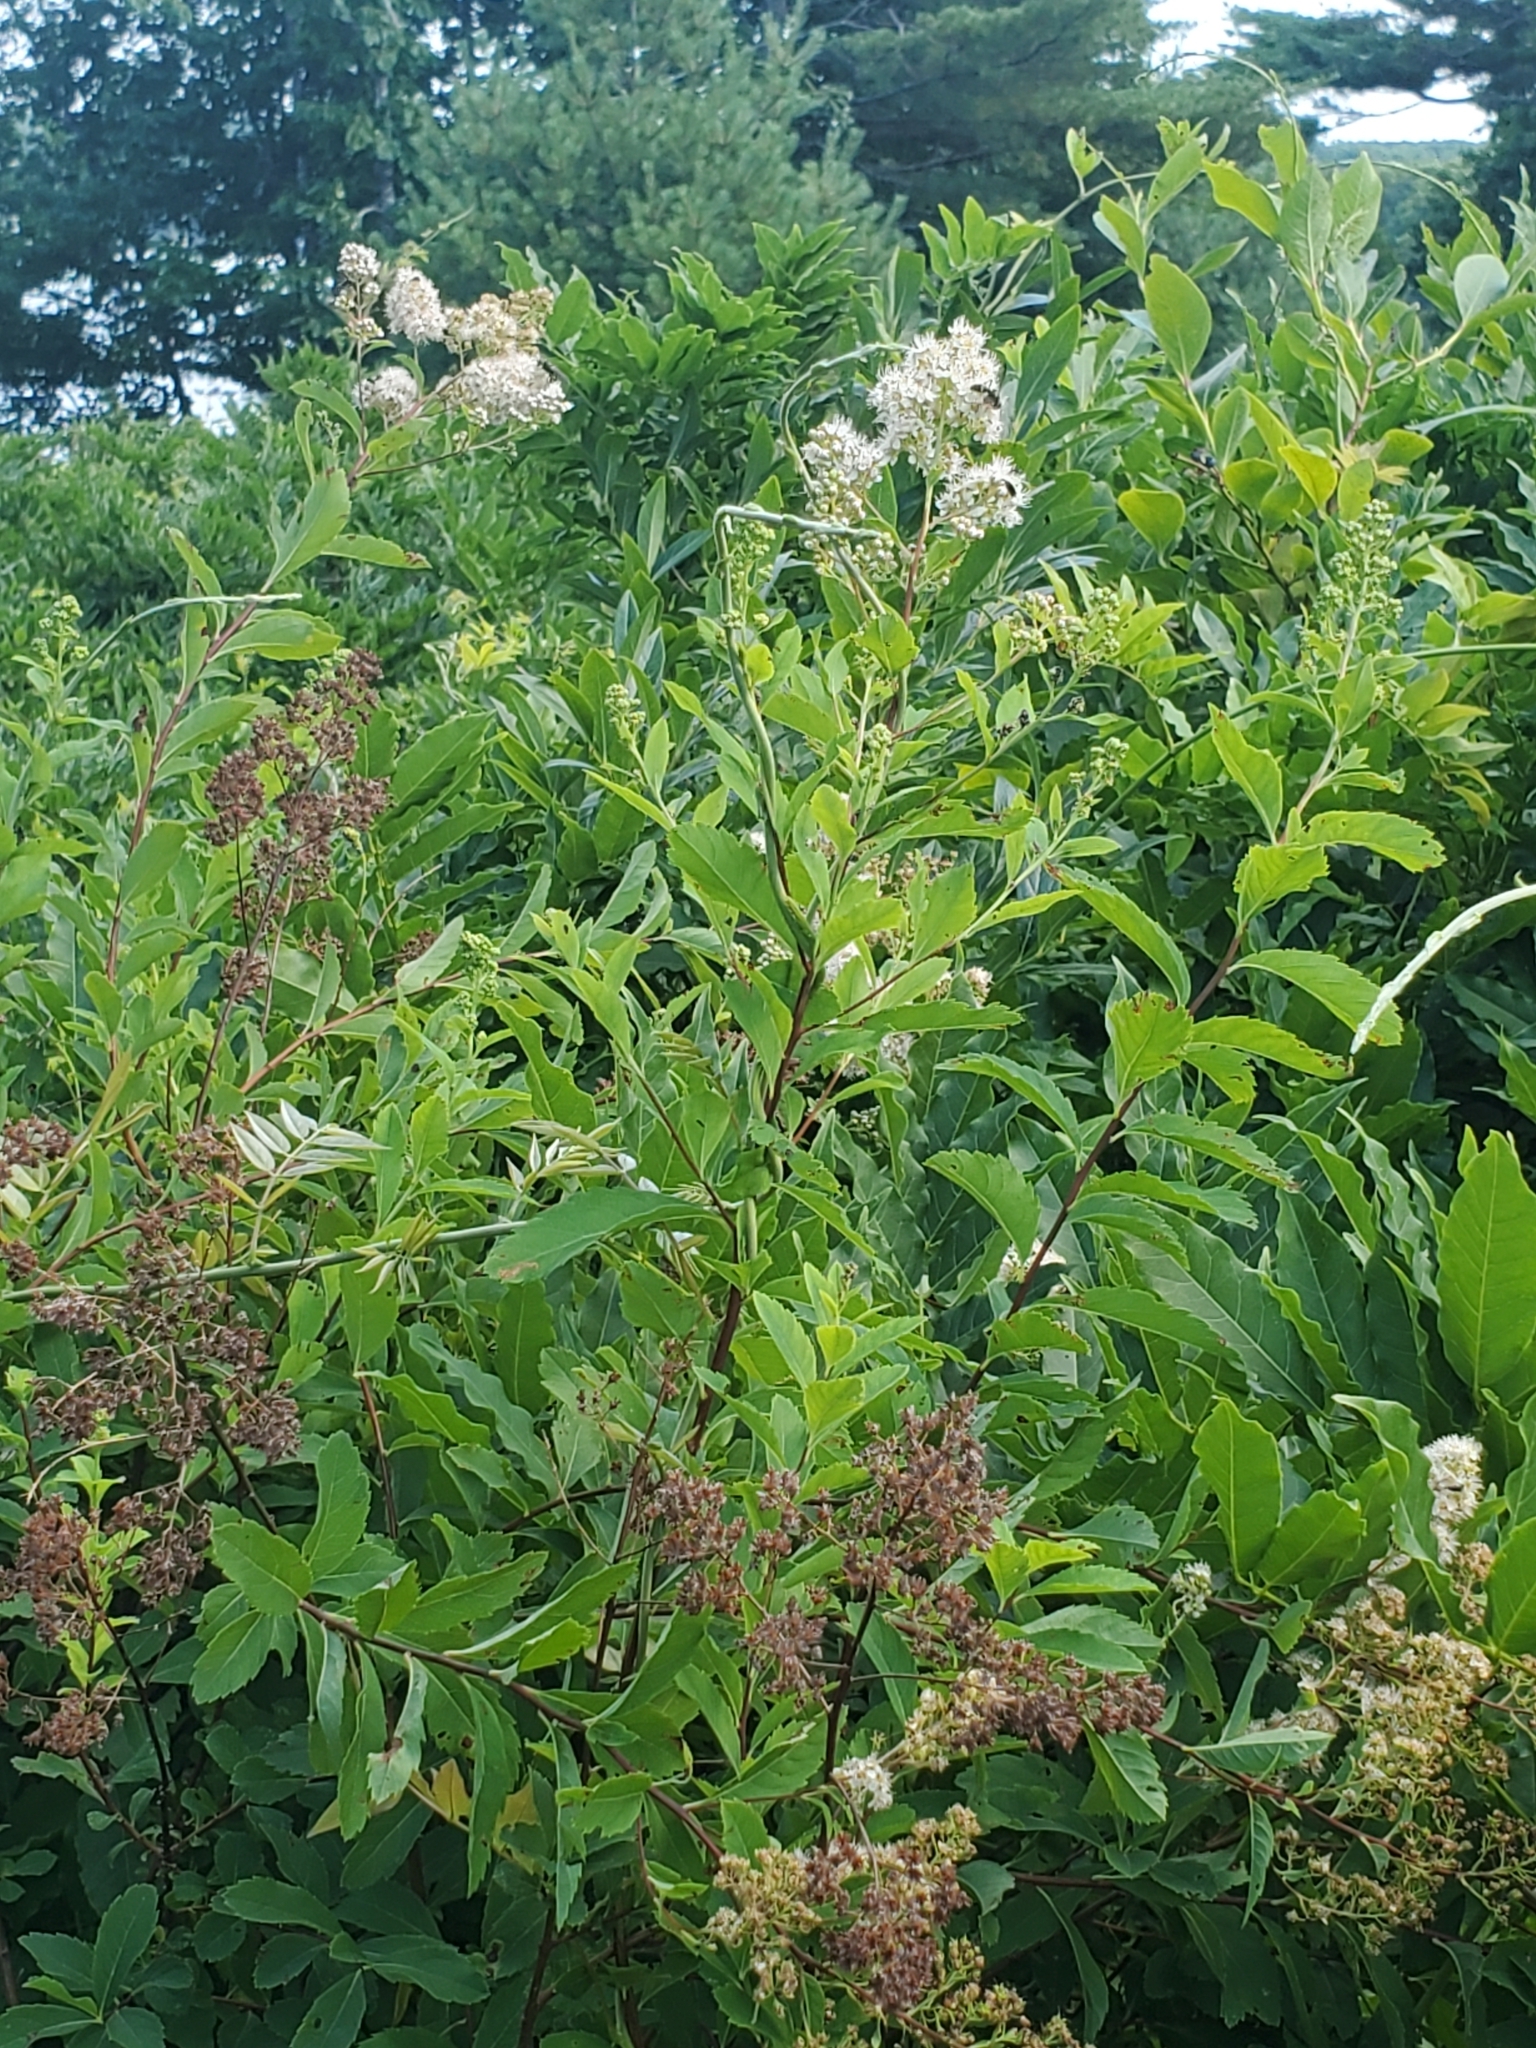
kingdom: Plantae
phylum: Tracheophyta
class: Magnoliopsida
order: Rosales
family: Rosaceae
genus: Spiraea
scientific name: Spiraea alba
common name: Pale bridewort
